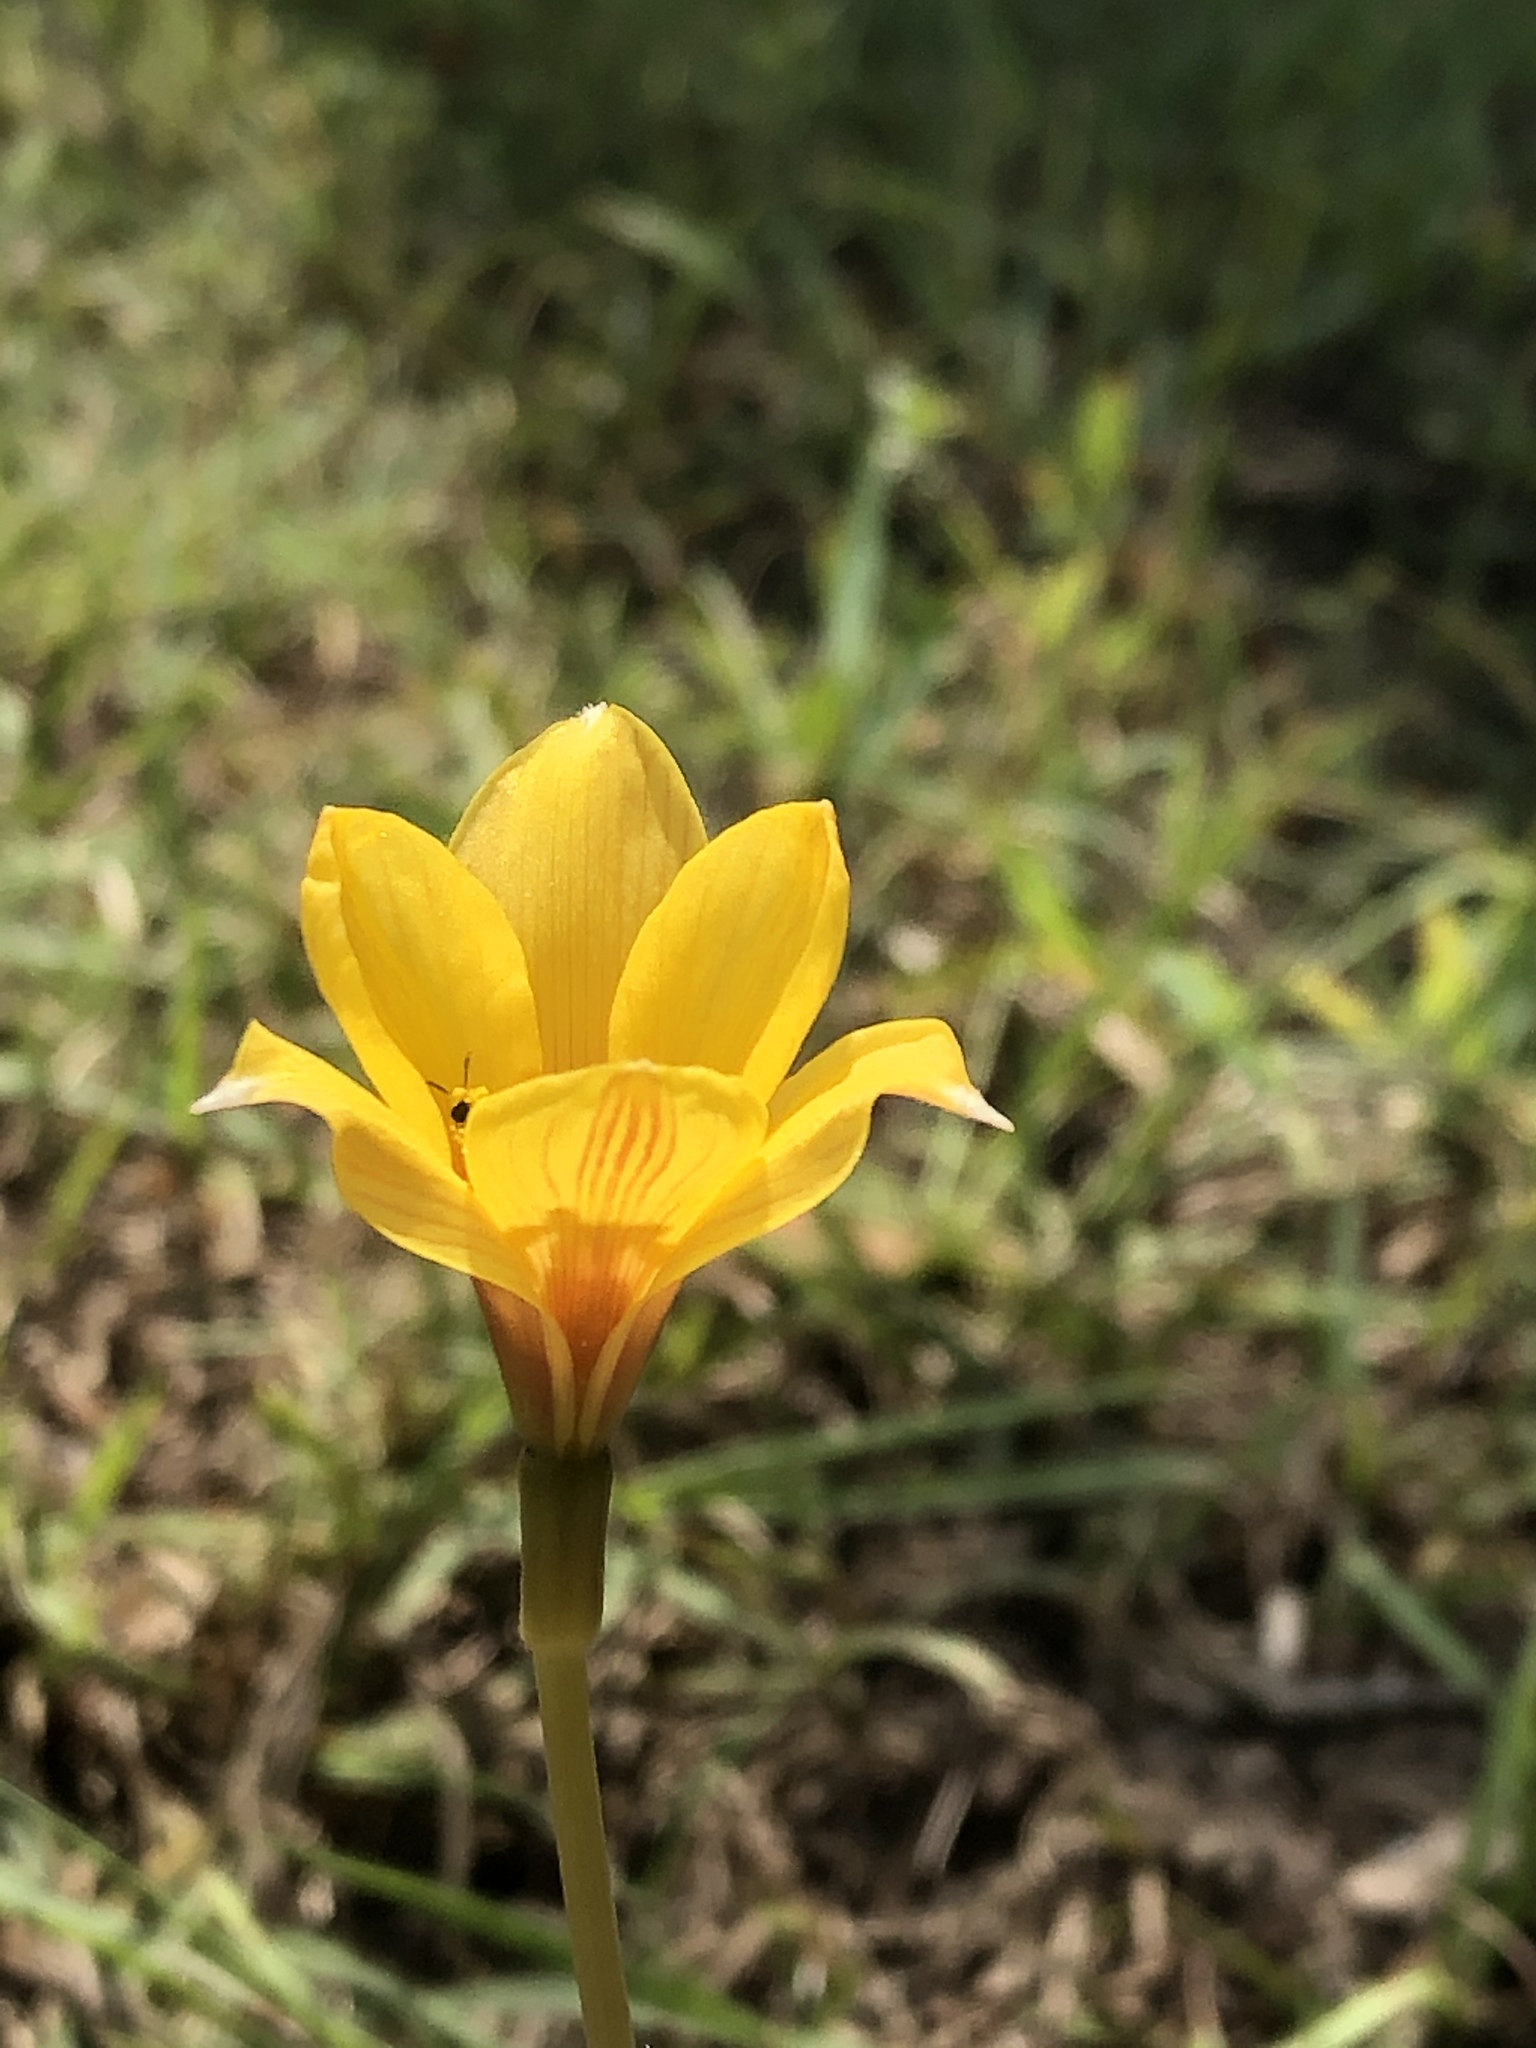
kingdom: Plantae
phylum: Tracheophyta
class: Liliopsida
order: Asparagales
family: Amaryllidaceae
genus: Zephyranthes
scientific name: Zephyranthes tubispatha
